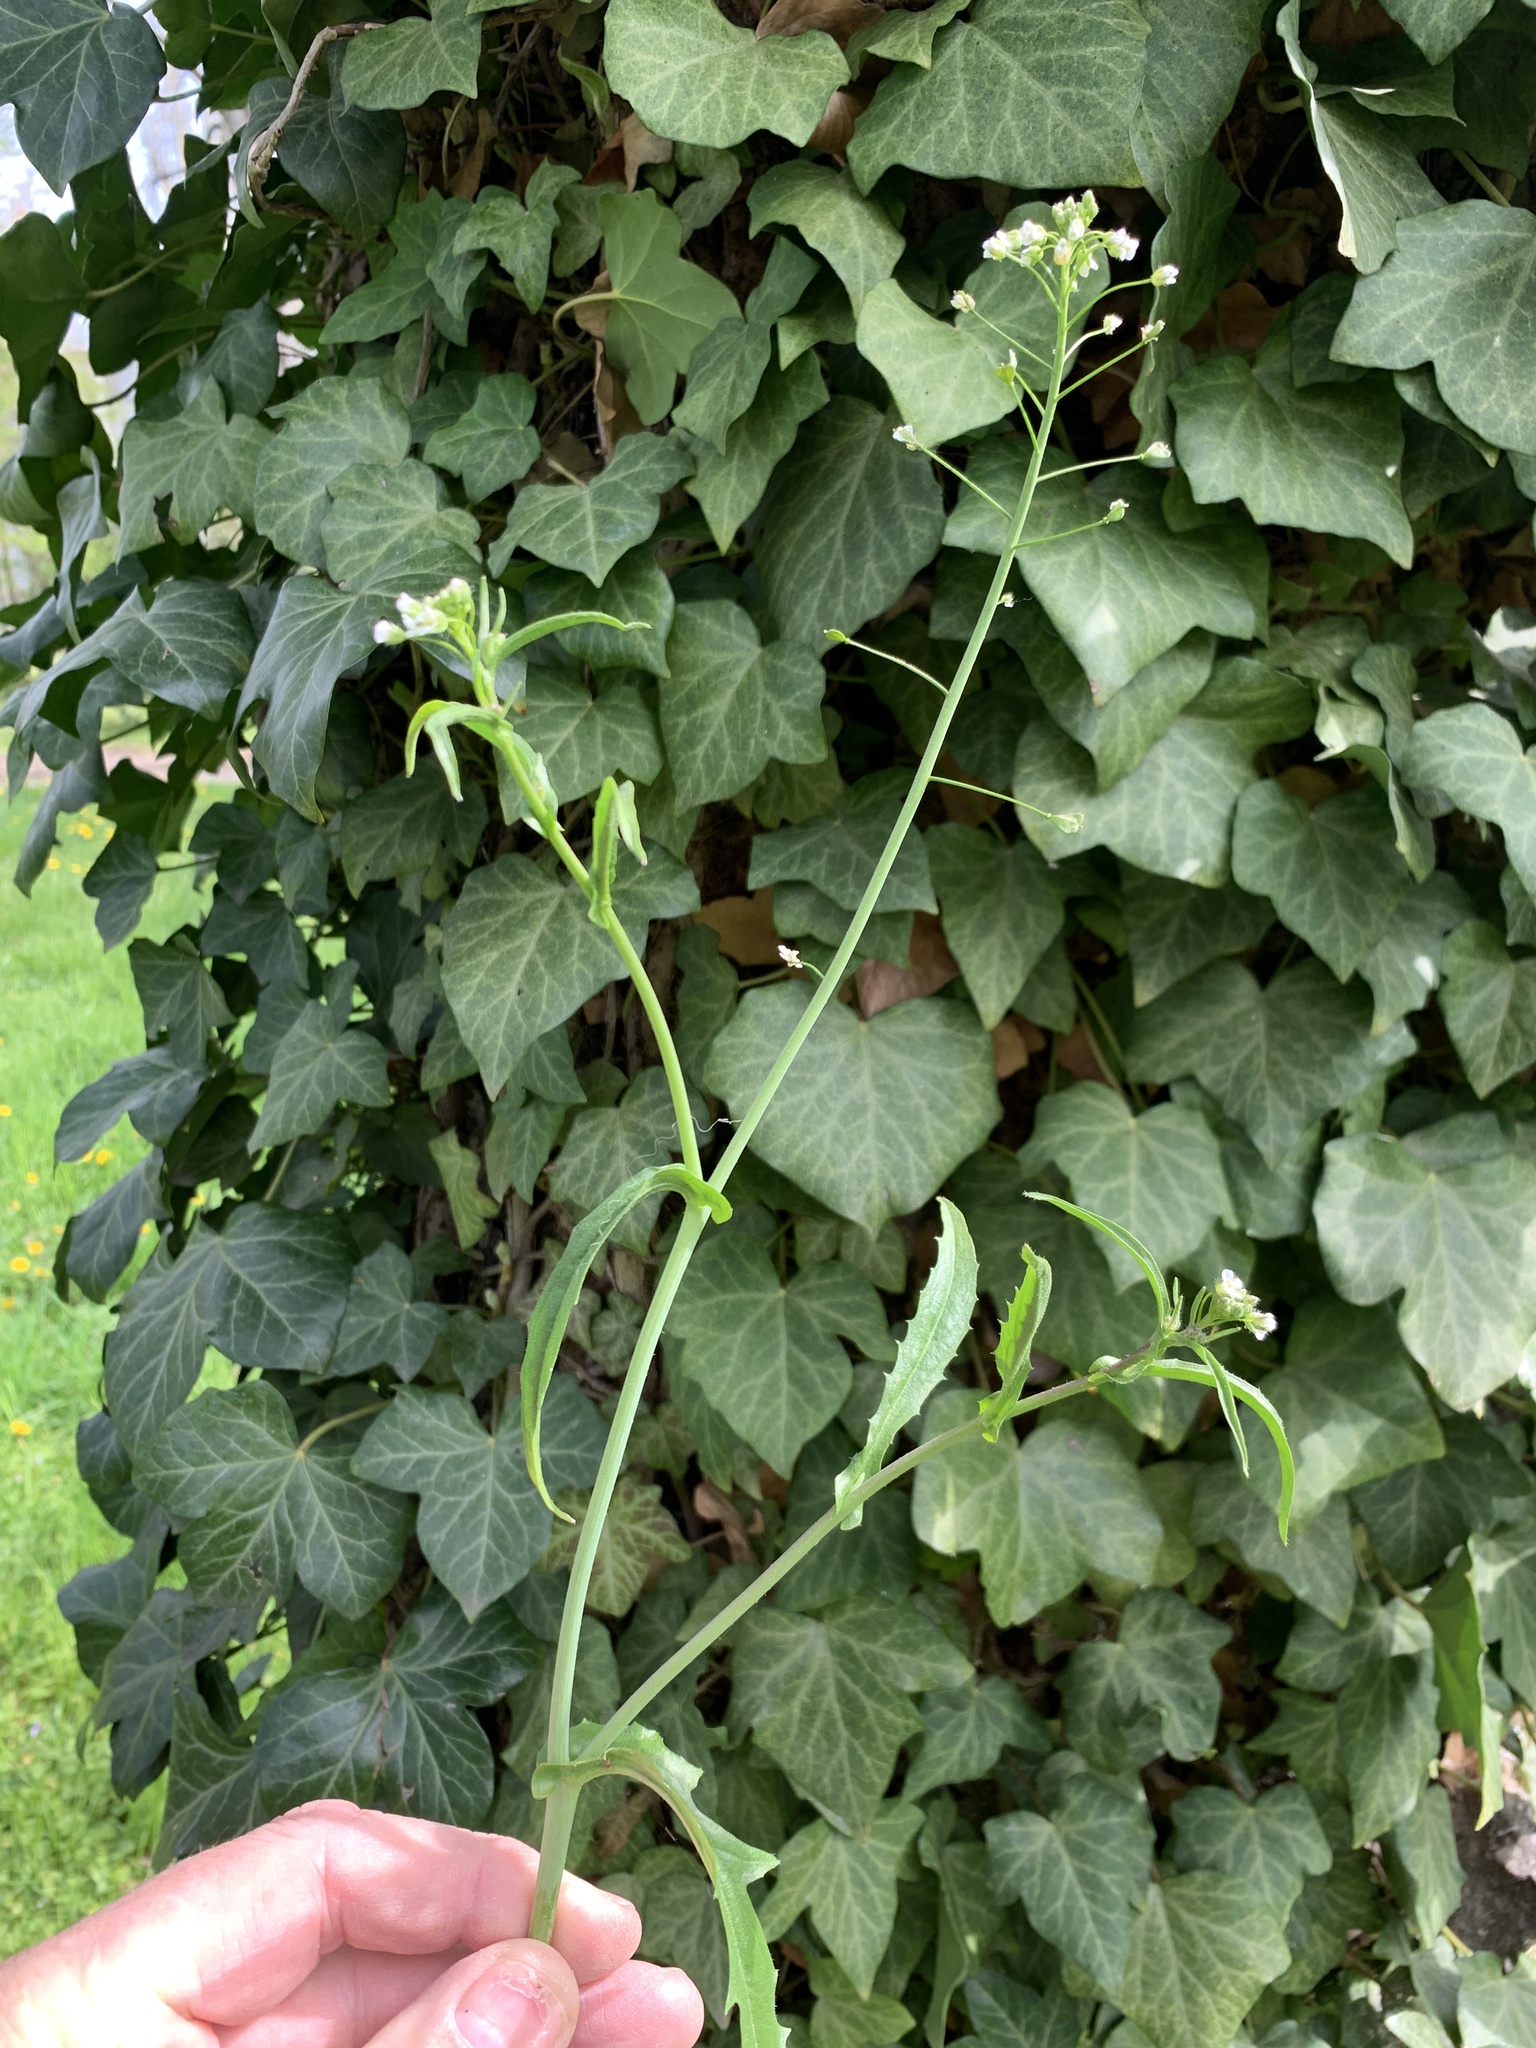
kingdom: Plantae
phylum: Tracheophyta
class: Magnoliopsida
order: Brassicales
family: Brassicaceae
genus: Capsella
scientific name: Capsella bursa-pastoris
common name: Shepherd's purse
